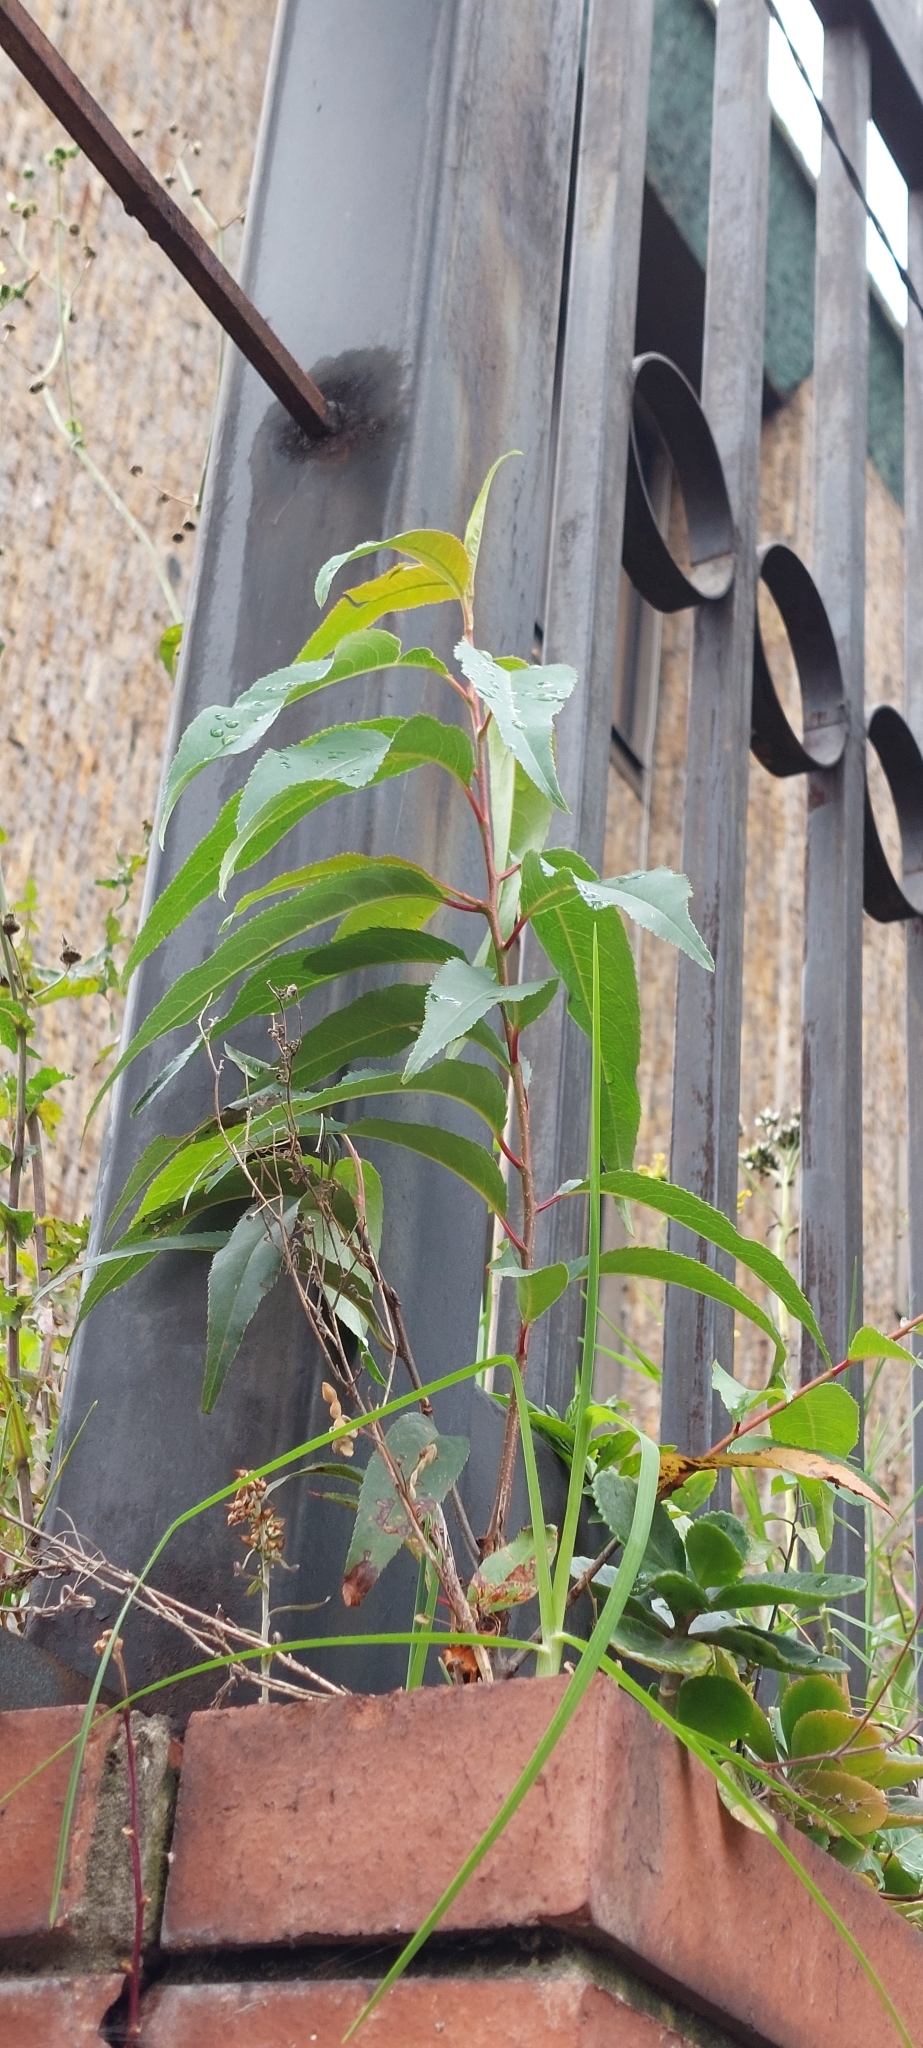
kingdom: Plantae
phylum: Tracheophyta
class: Magnoliopsida
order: Rosales
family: Rosaceae
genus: Prunus
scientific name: Prunus serotina
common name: Black cherry
